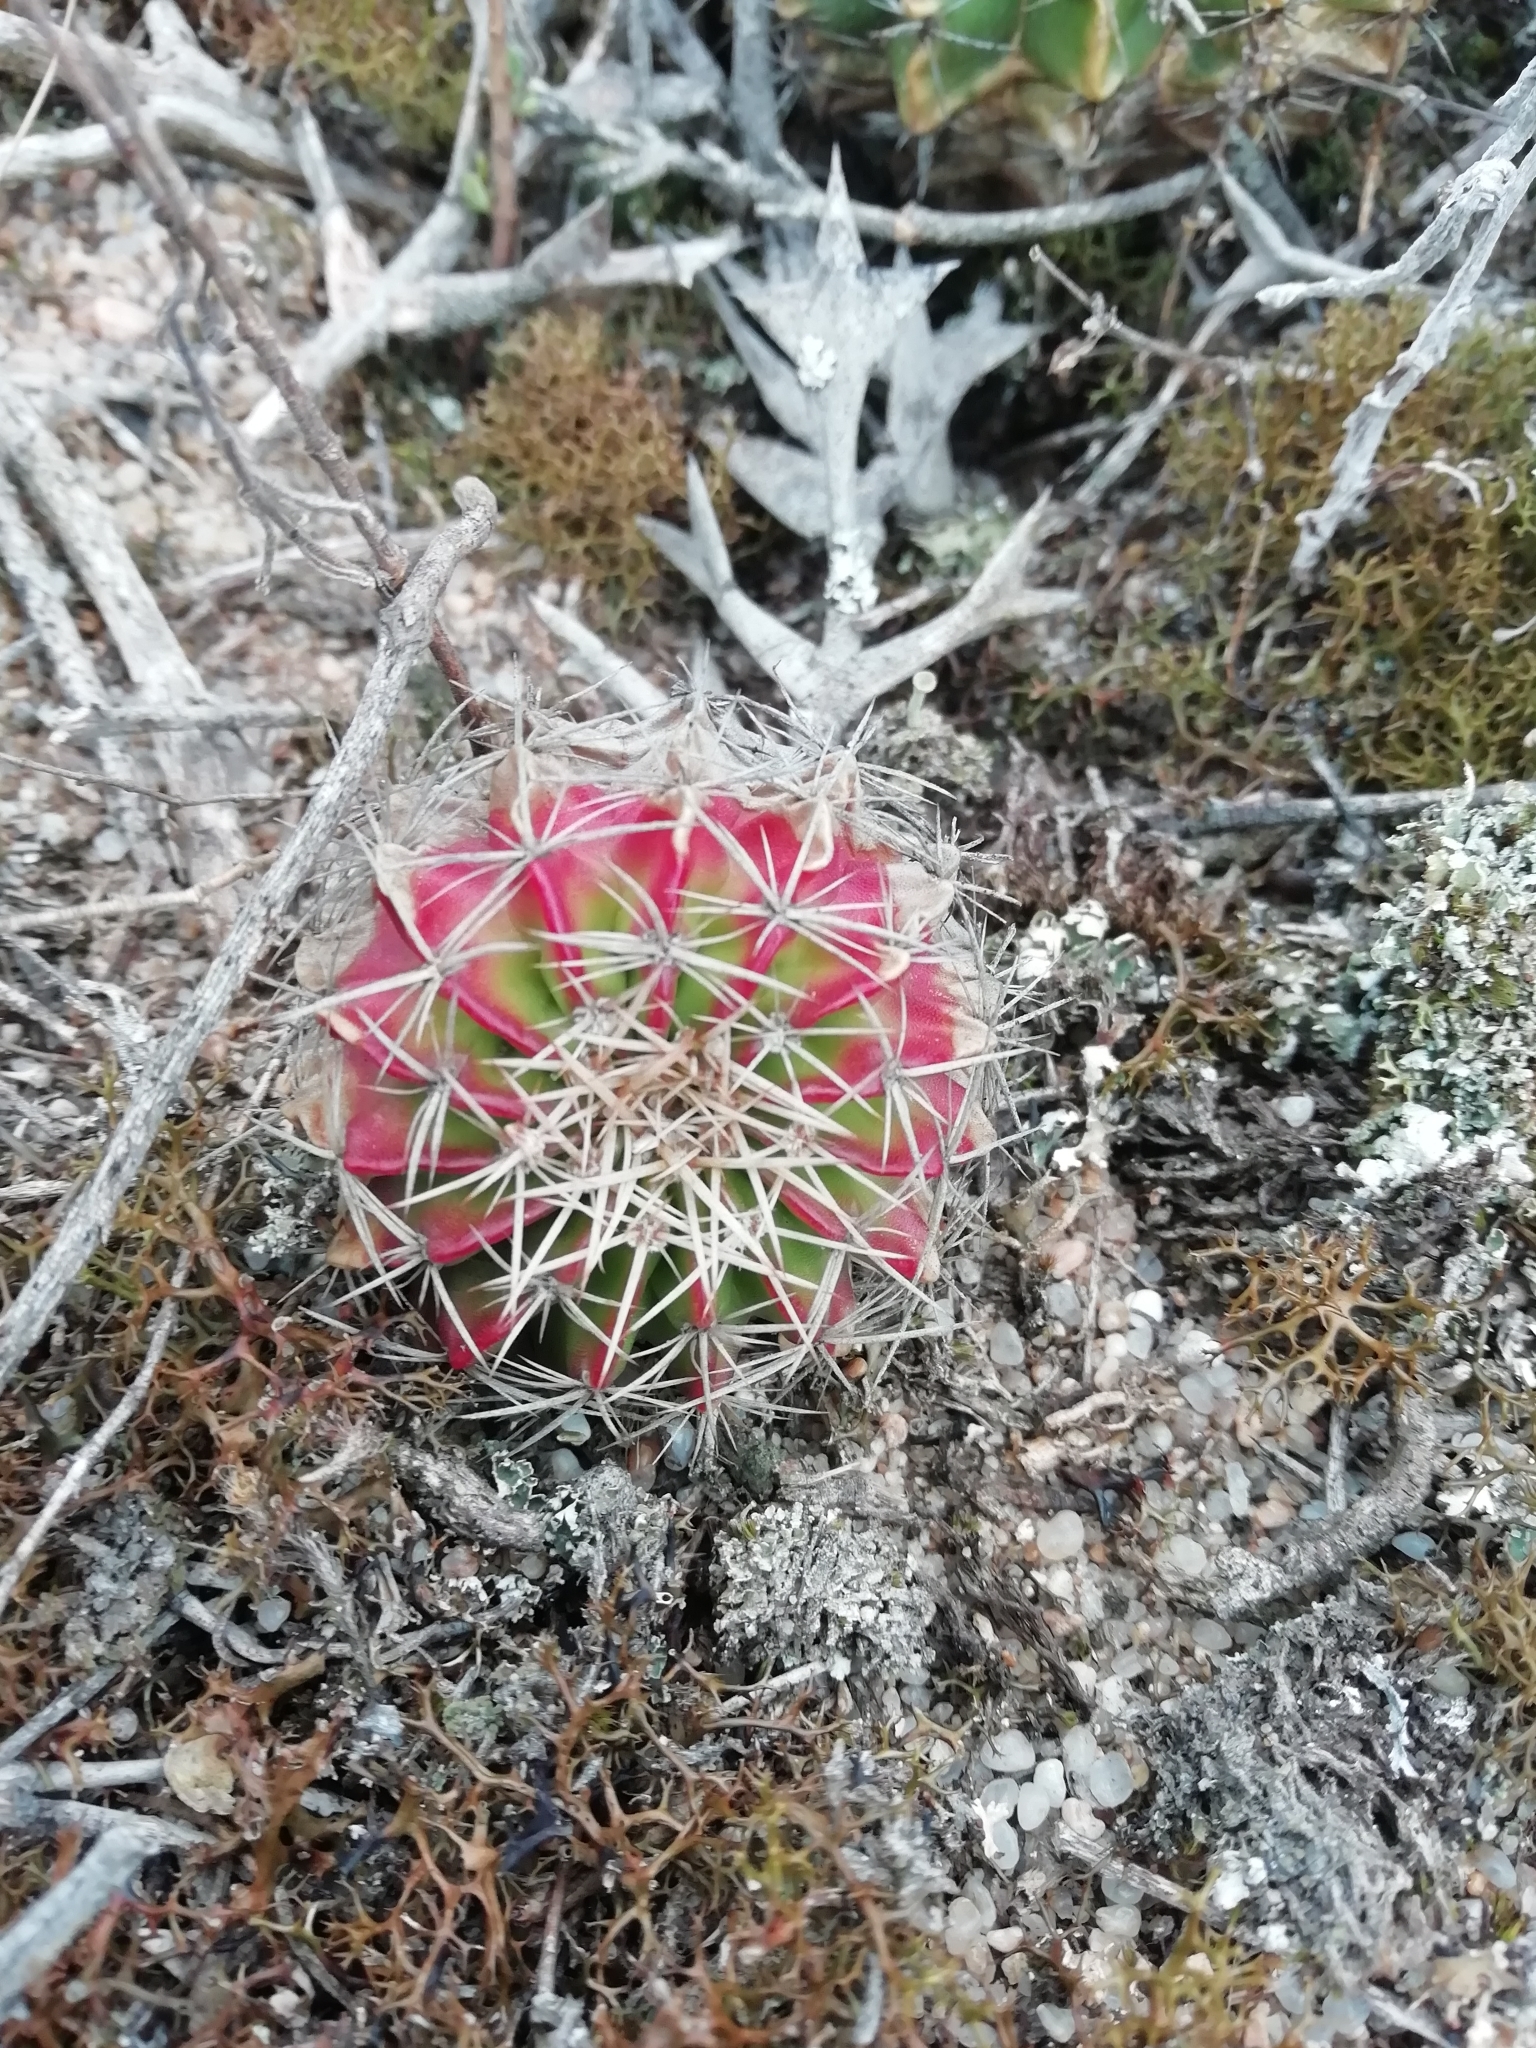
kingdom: Plantae
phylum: Tracheophyta
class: Magnoliopsida
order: Caryophyllales
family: Cactaceae
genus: Parodia
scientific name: Parodia erinacea
